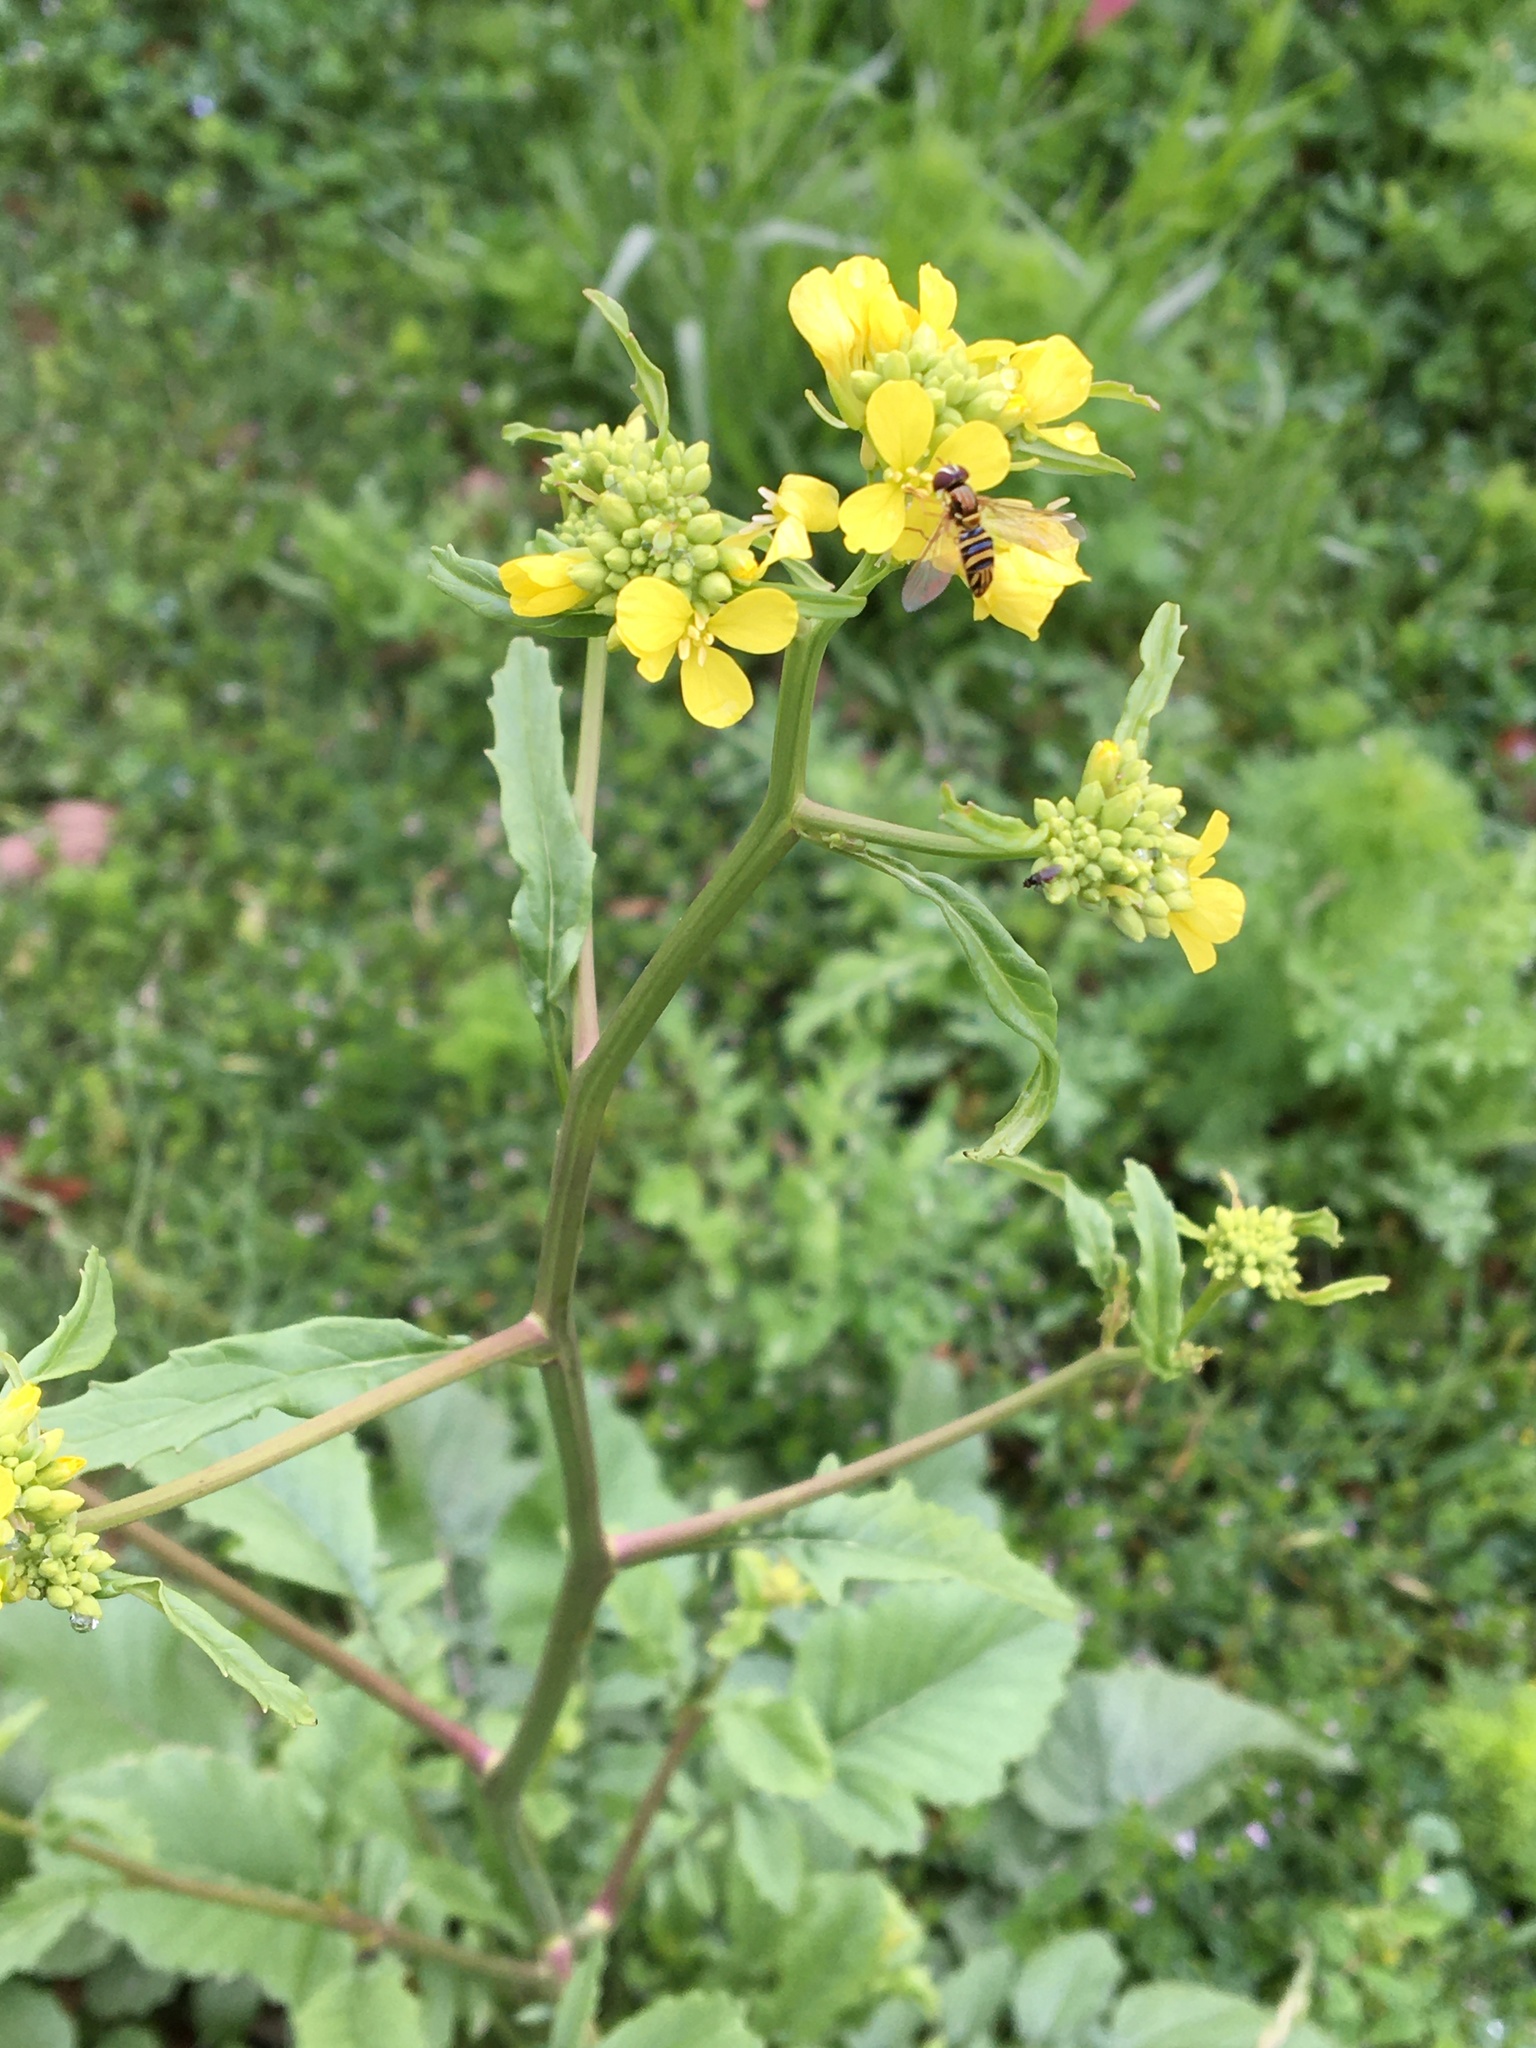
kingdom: Plantae
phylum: Tracheophyta
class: Magnoliopsida
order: Brassicales
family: Brassicaceae
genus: Rapistrum
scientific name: Rapistrum rugosum
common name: Annual bastardcabbage
